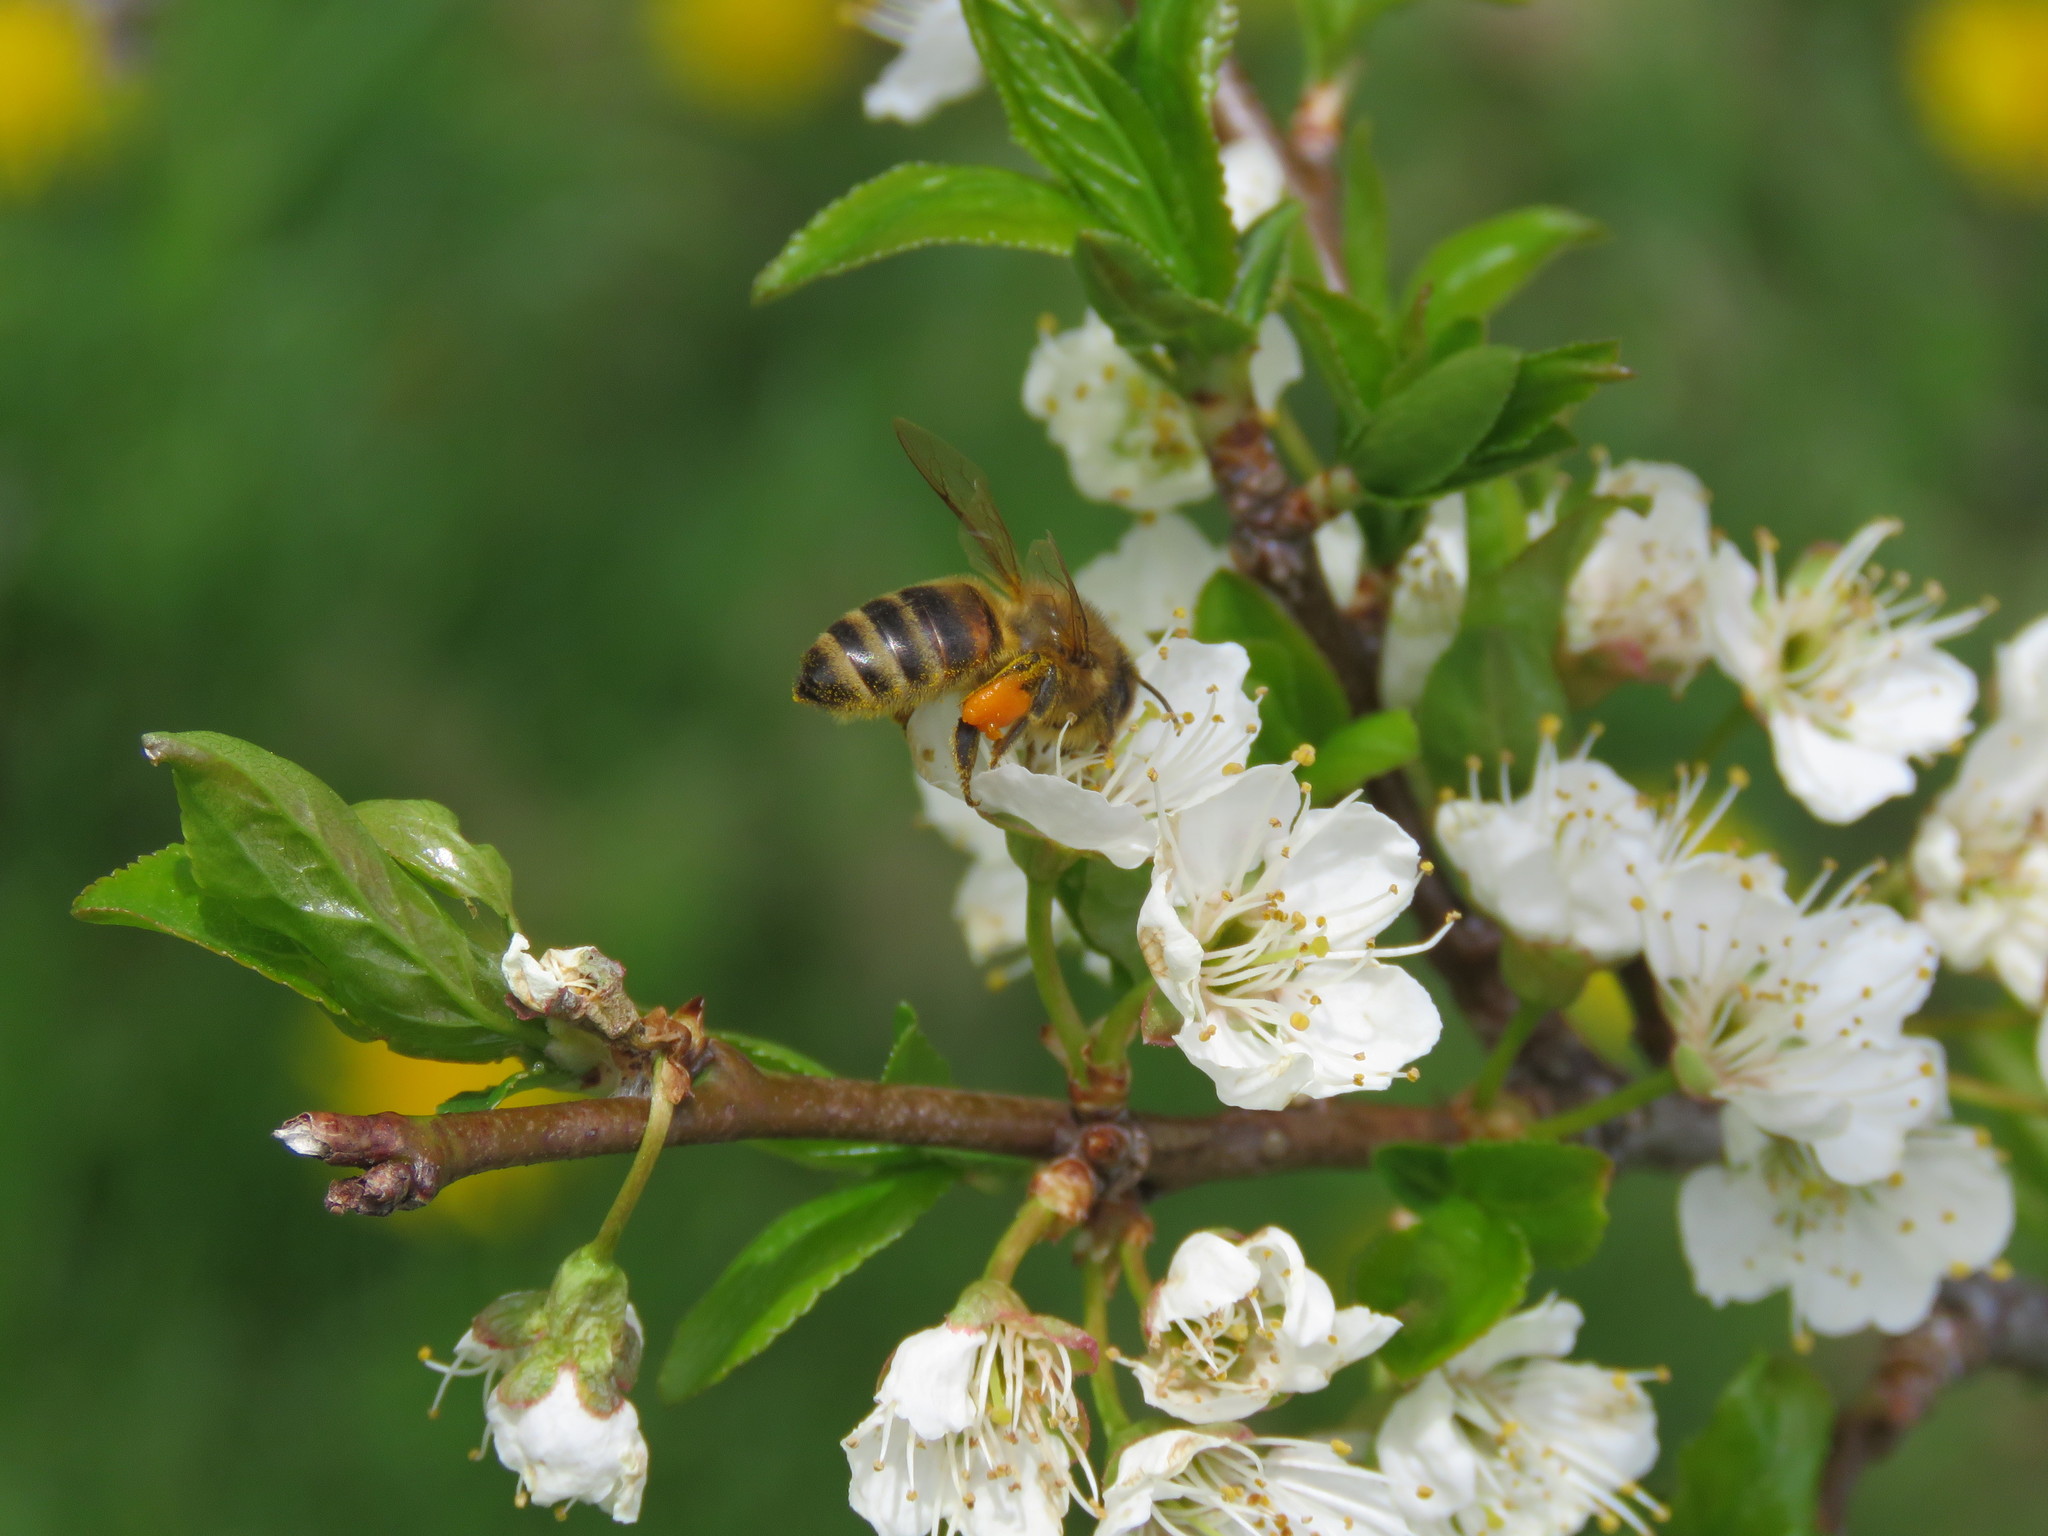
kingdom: Animalia
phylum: Arthropoda
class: Insecta
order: Hymenoptera
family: Apidae
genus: Apis
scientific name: Apis mellifera
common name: Honey bee
